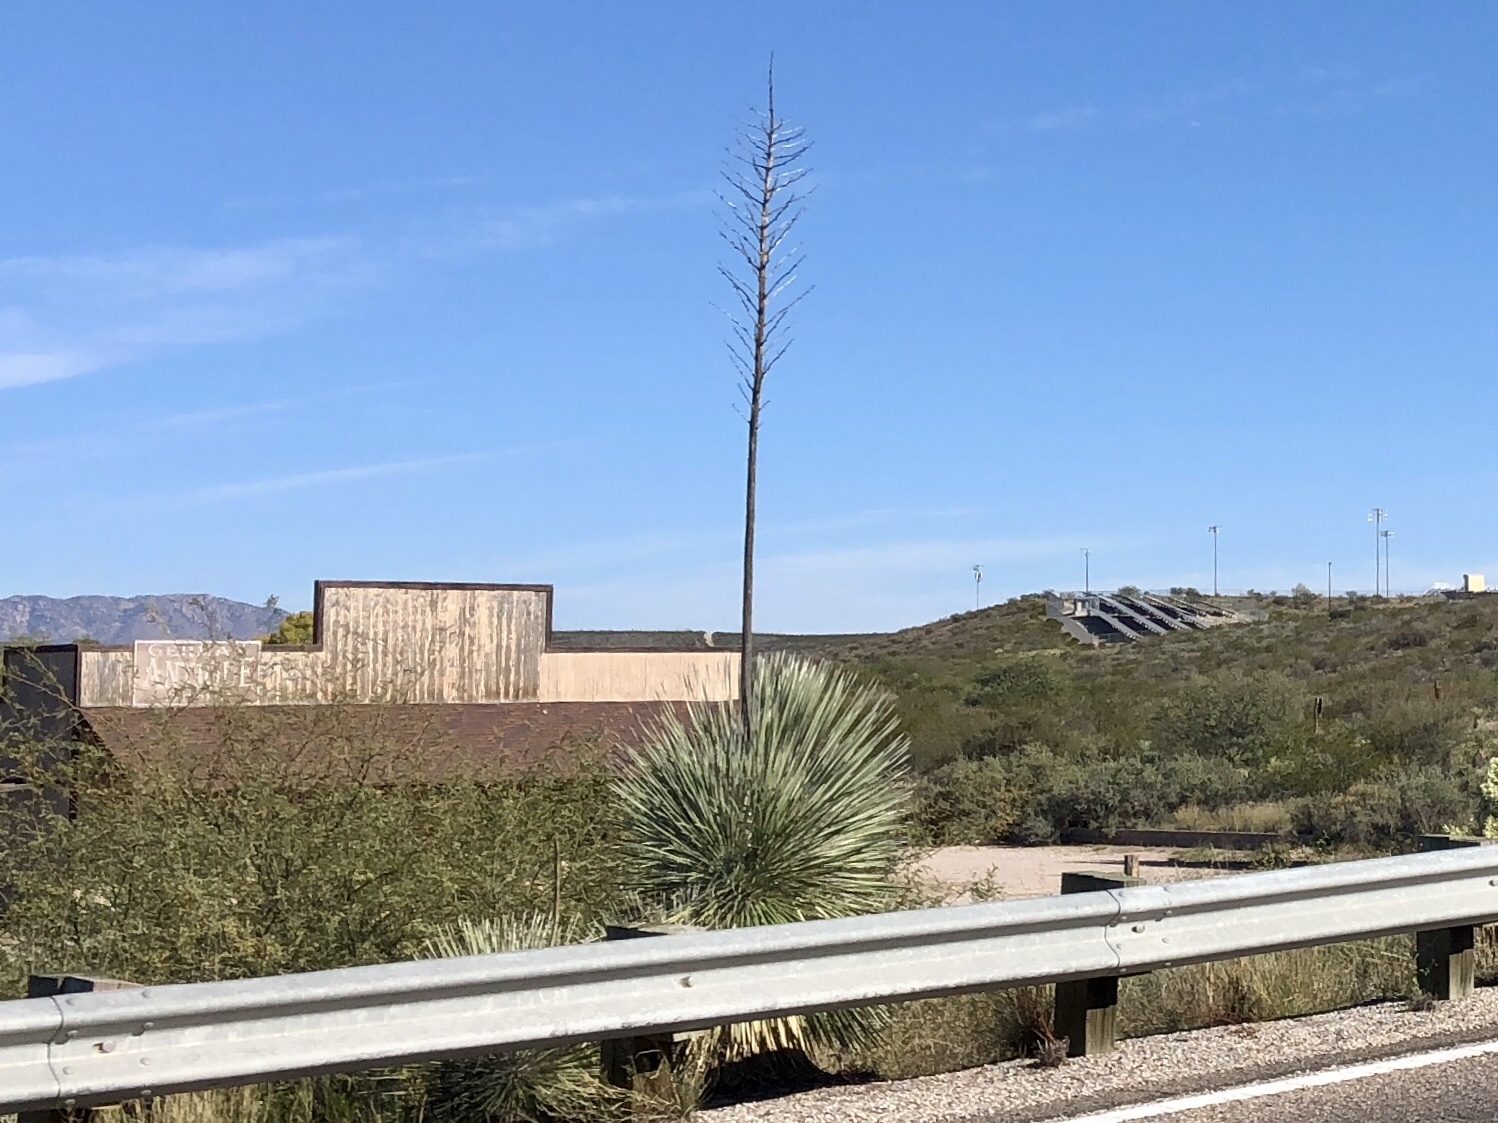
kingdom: Plantae
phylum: Tracheophyta
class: Liliopsida
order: Asparagales
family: Asparagaceae
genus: Yucca
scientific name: Yucca elata
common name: Palmella
